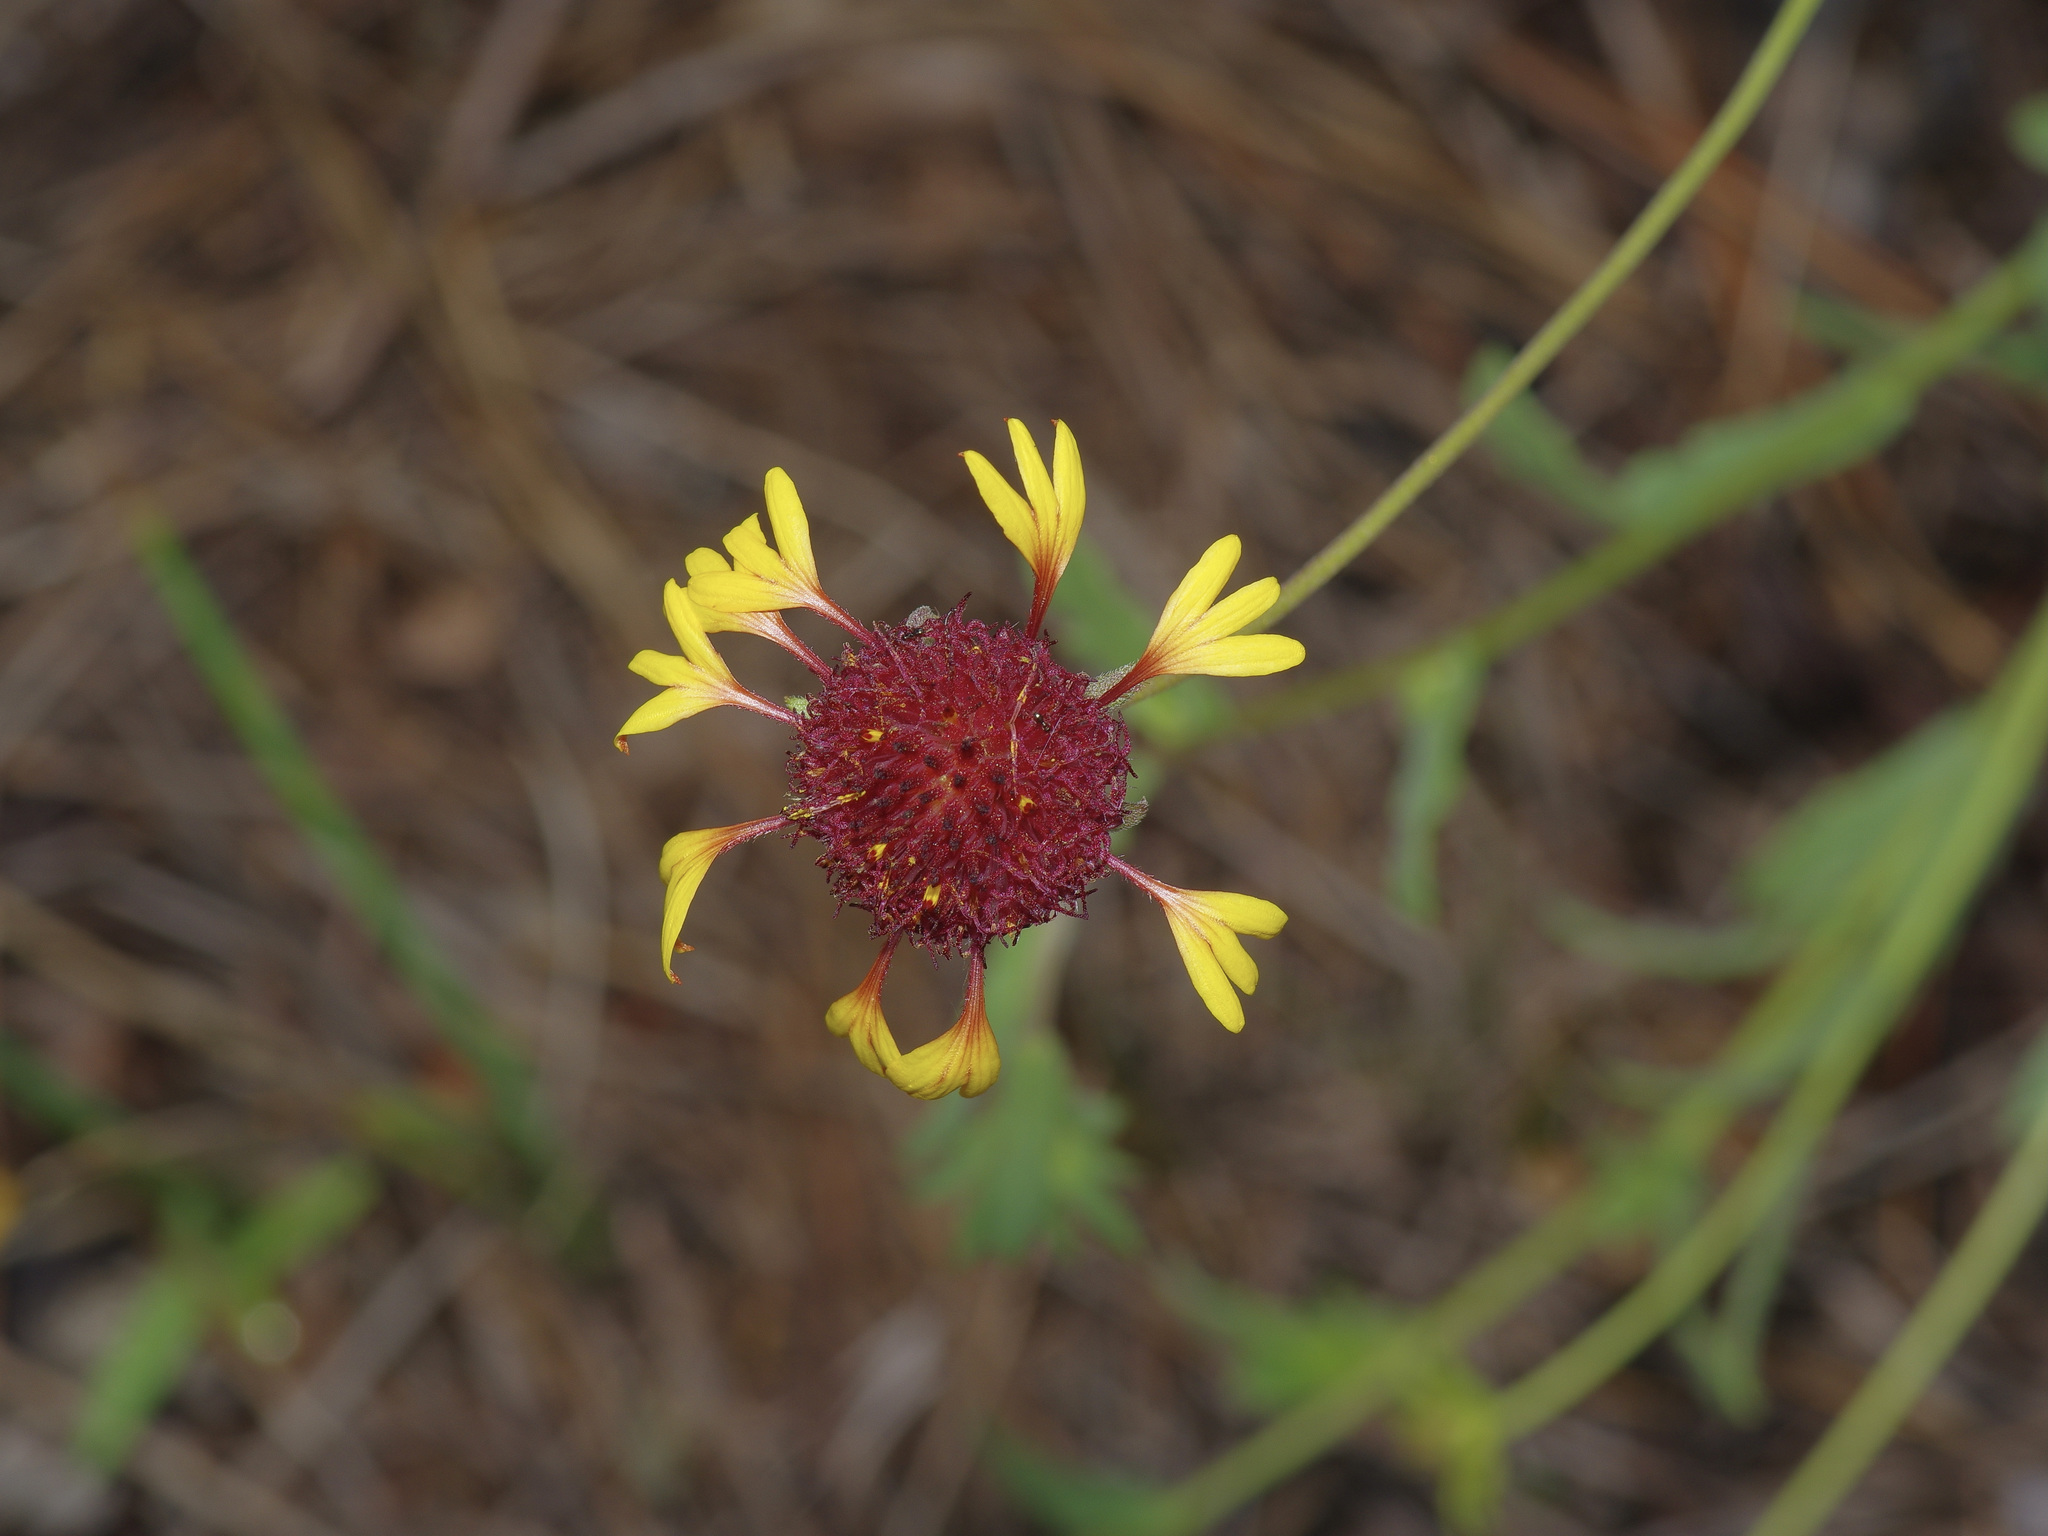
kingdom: Plantae
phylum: Tracheophyta
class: Magnoliopsida
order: Asterales
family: Asteraceae
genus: Gaillardia
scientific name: Gaillardia aestivalis
